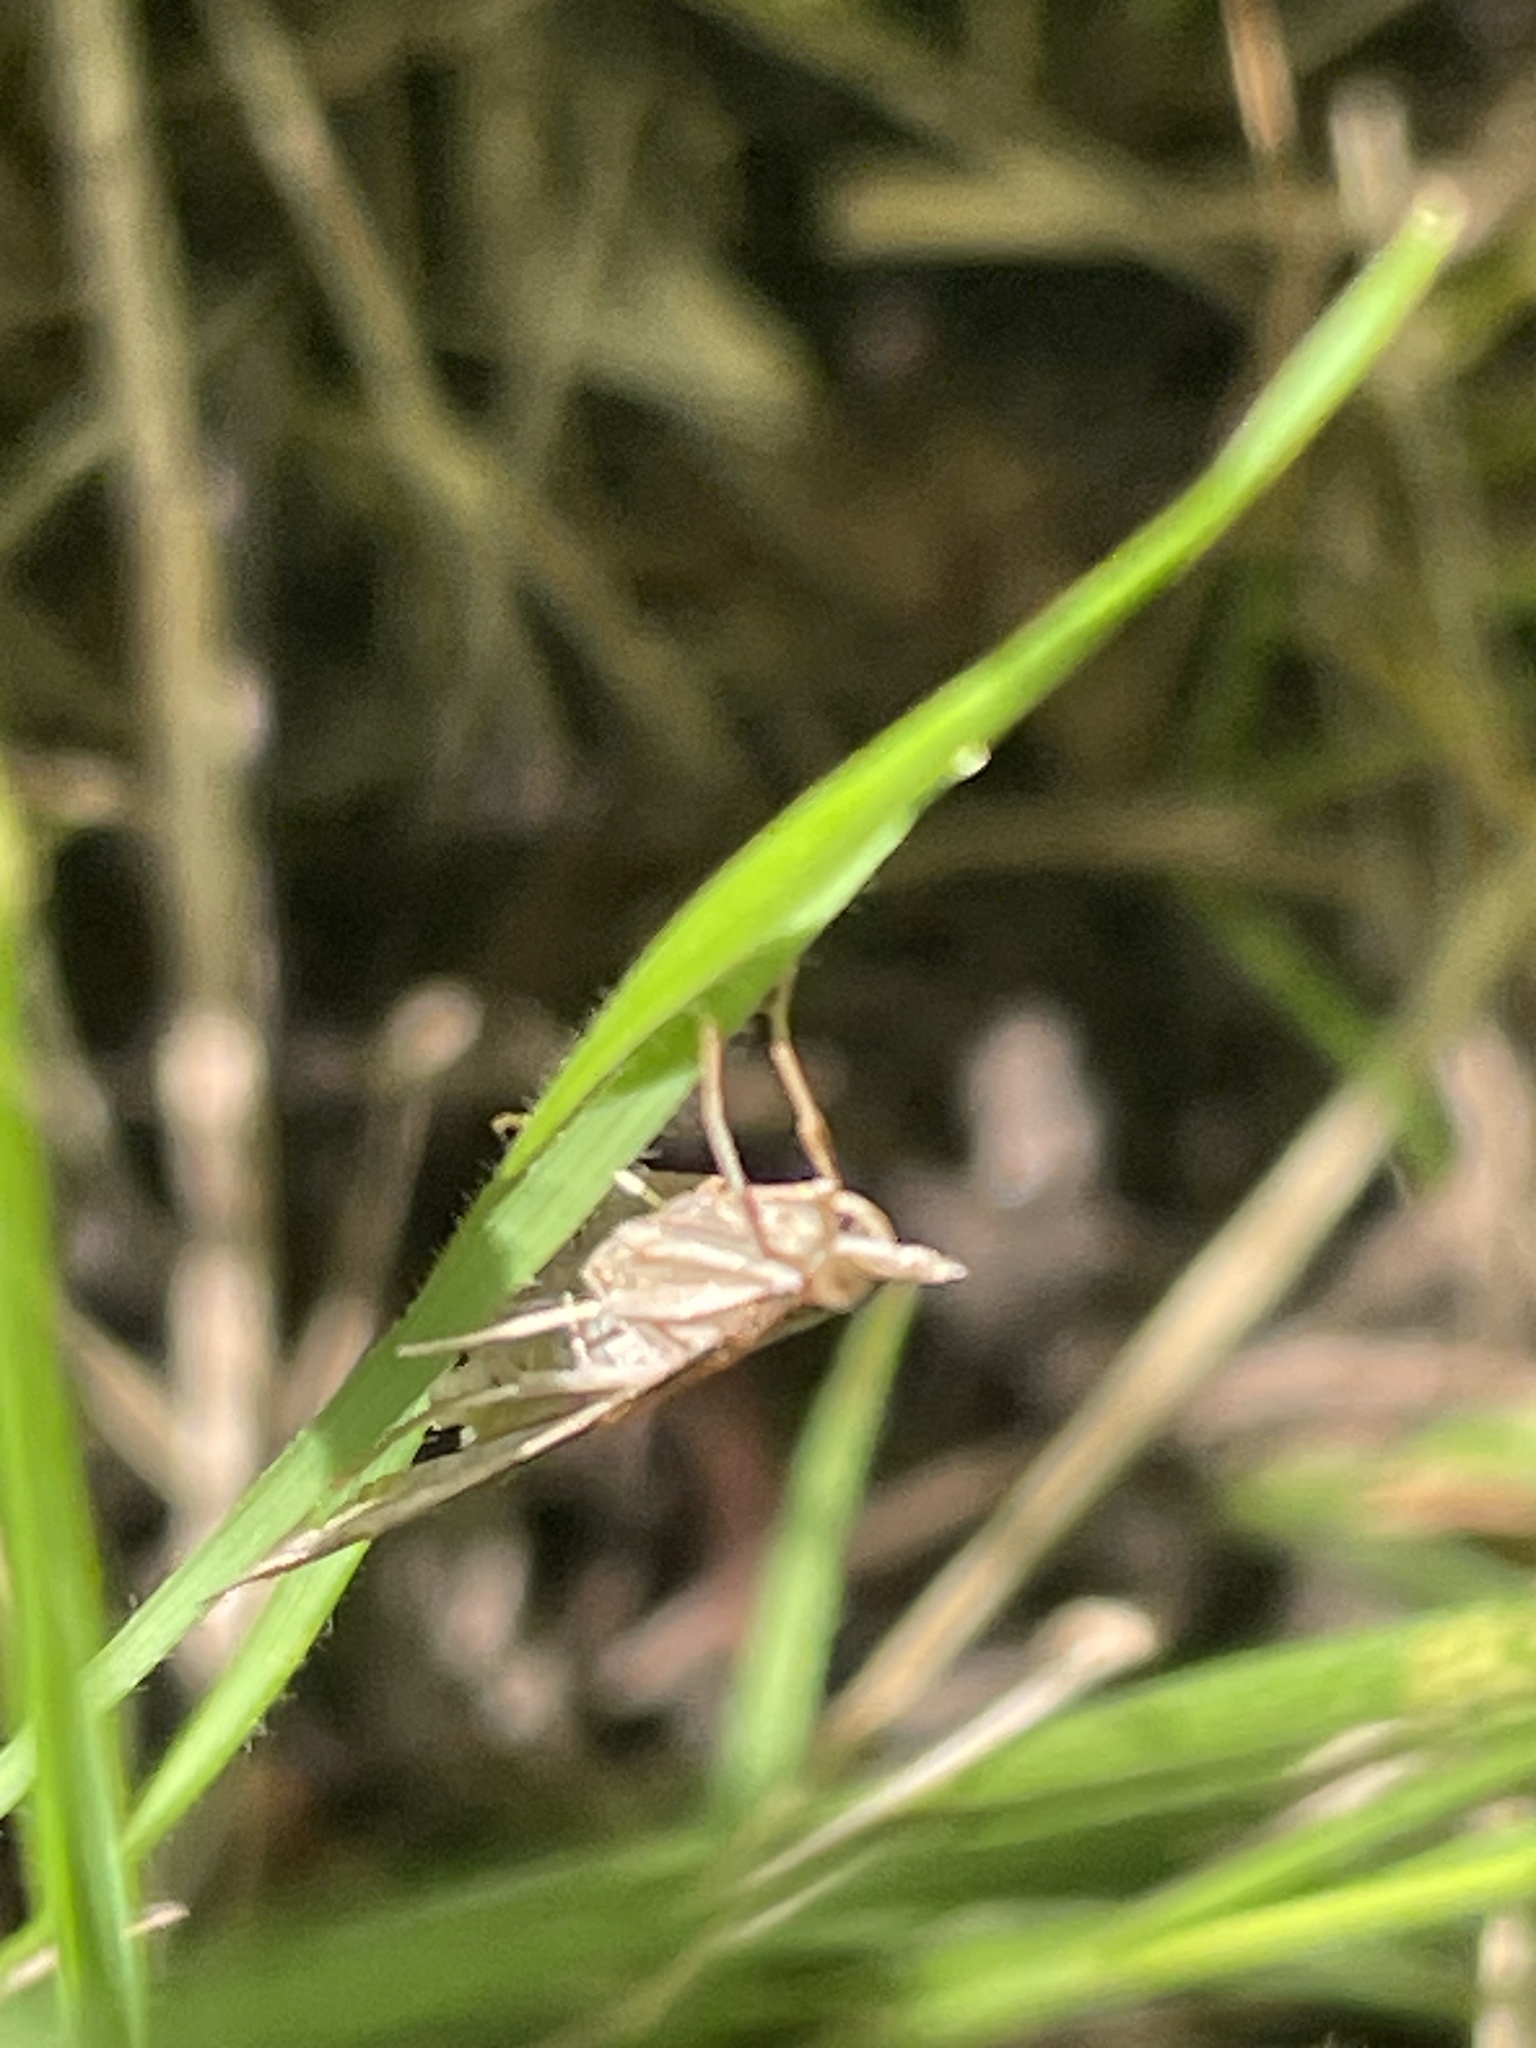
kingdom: Animalia
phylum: Arthropoda
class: Insecta
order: Lepidoptera
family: Crambidae
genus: Udea
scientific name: Udea rubigalis
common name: Celery leaftier moth
